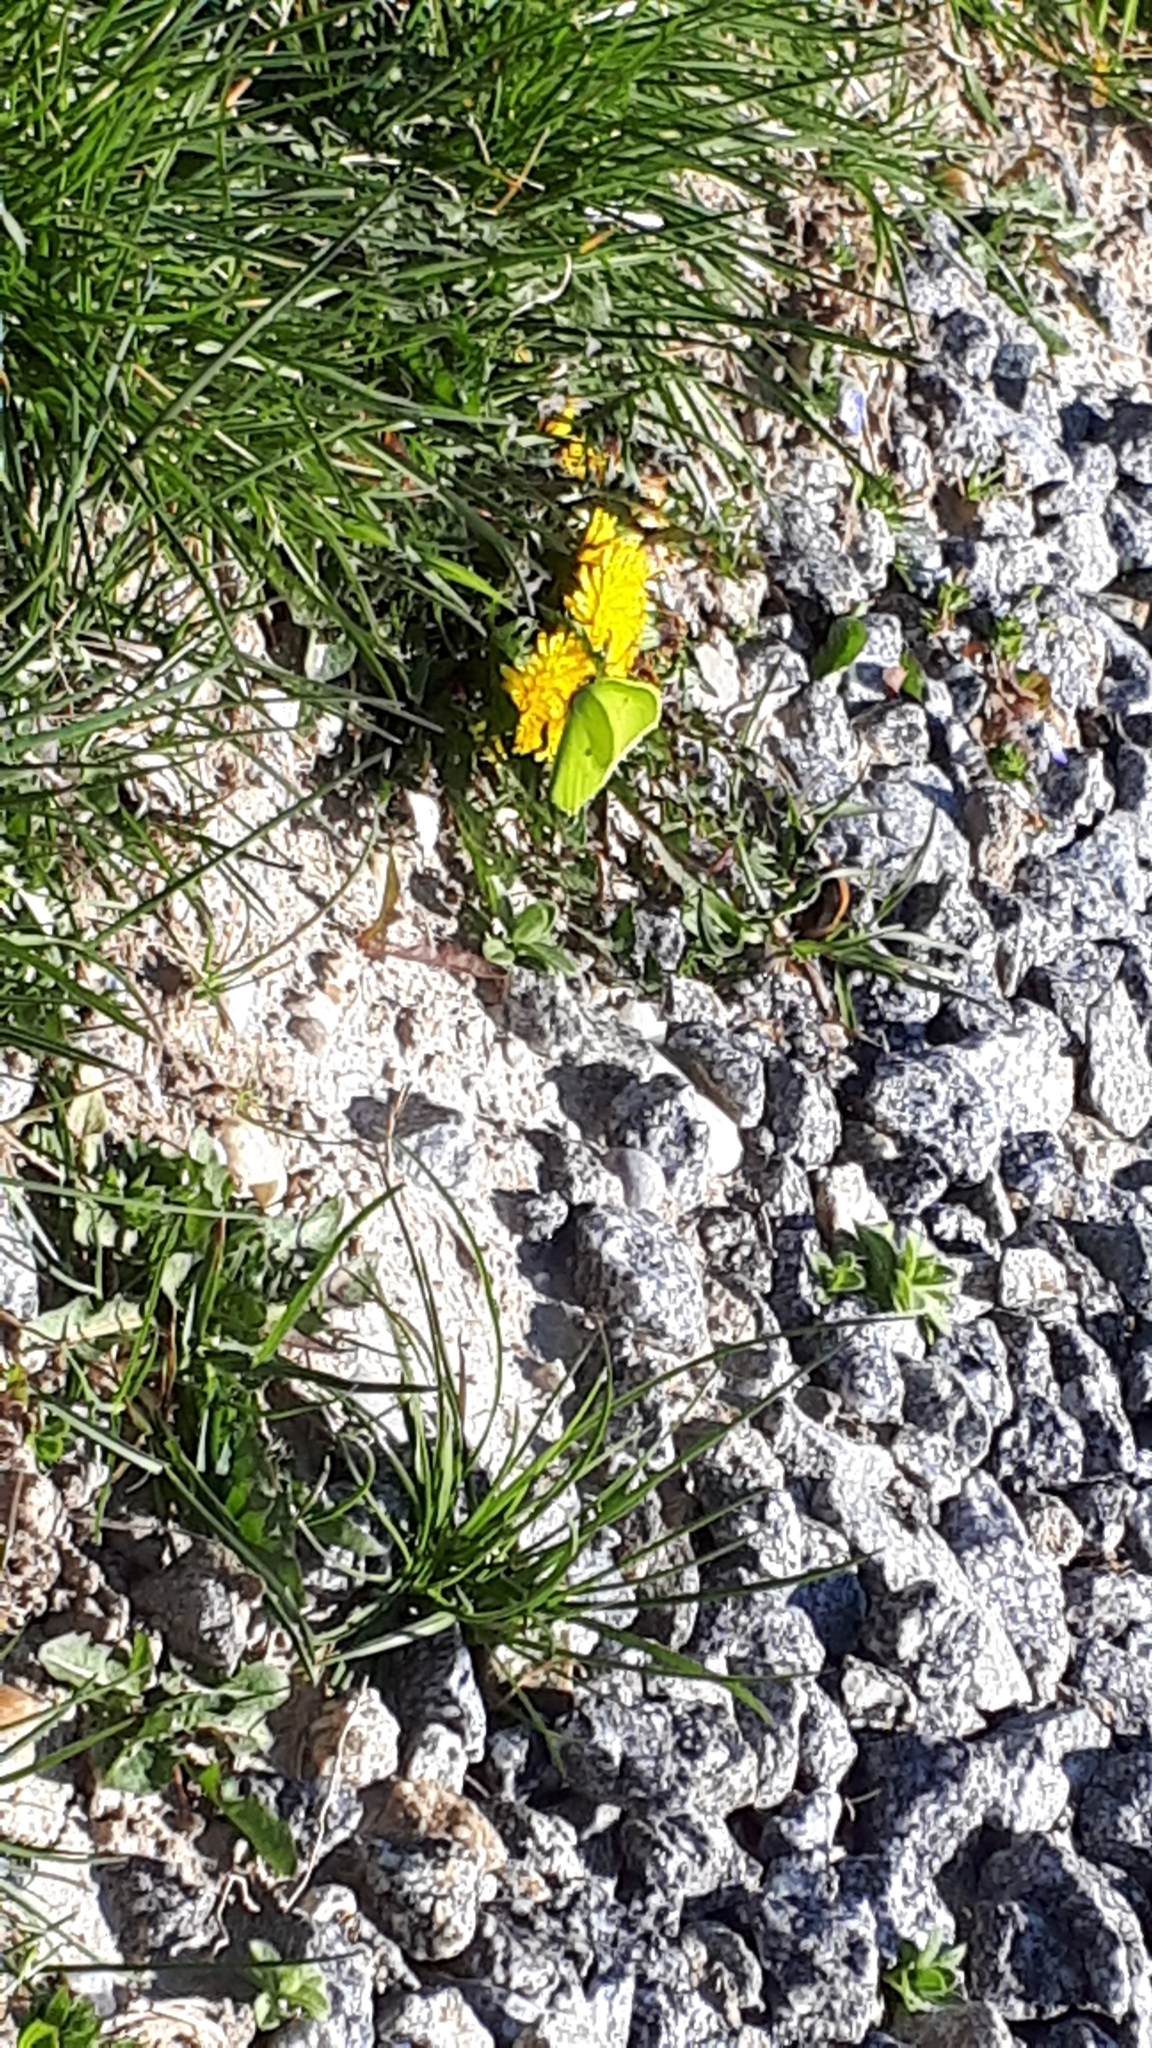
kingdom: Animalia
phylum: Arthropoda
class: Insecta
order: Lepidoptera
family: Pieridae
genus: Gonepteryx
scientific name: Gonepteryx rhamni
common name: Brimstone
